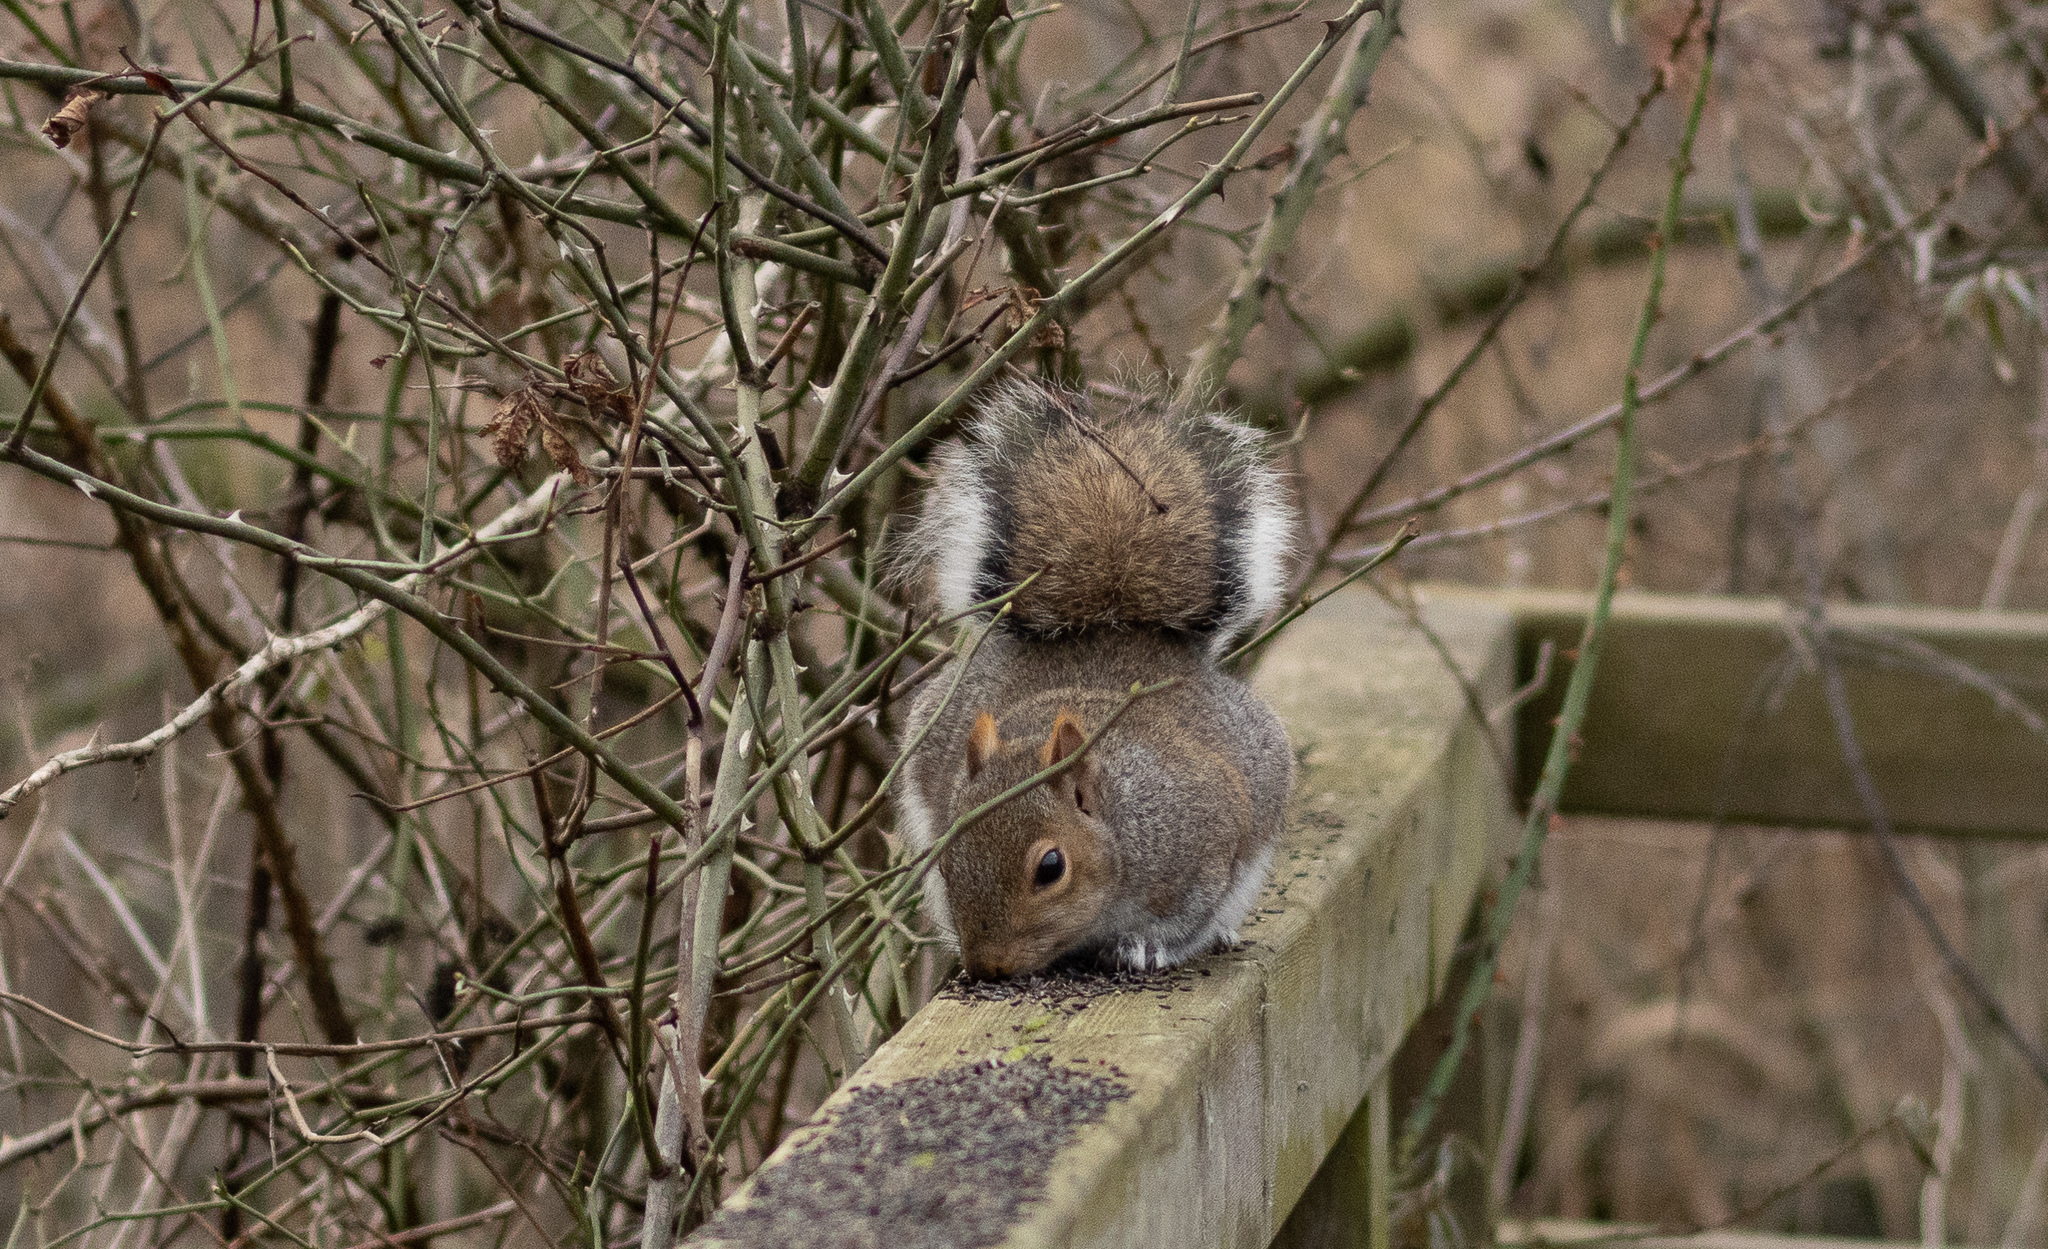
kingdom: Animalia
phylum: Chordata
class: Mammalia
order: Rodentia
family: Sciuridae
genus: Sciurus
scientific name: Sciurus carolinensis
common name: Eastern gray squirrel
